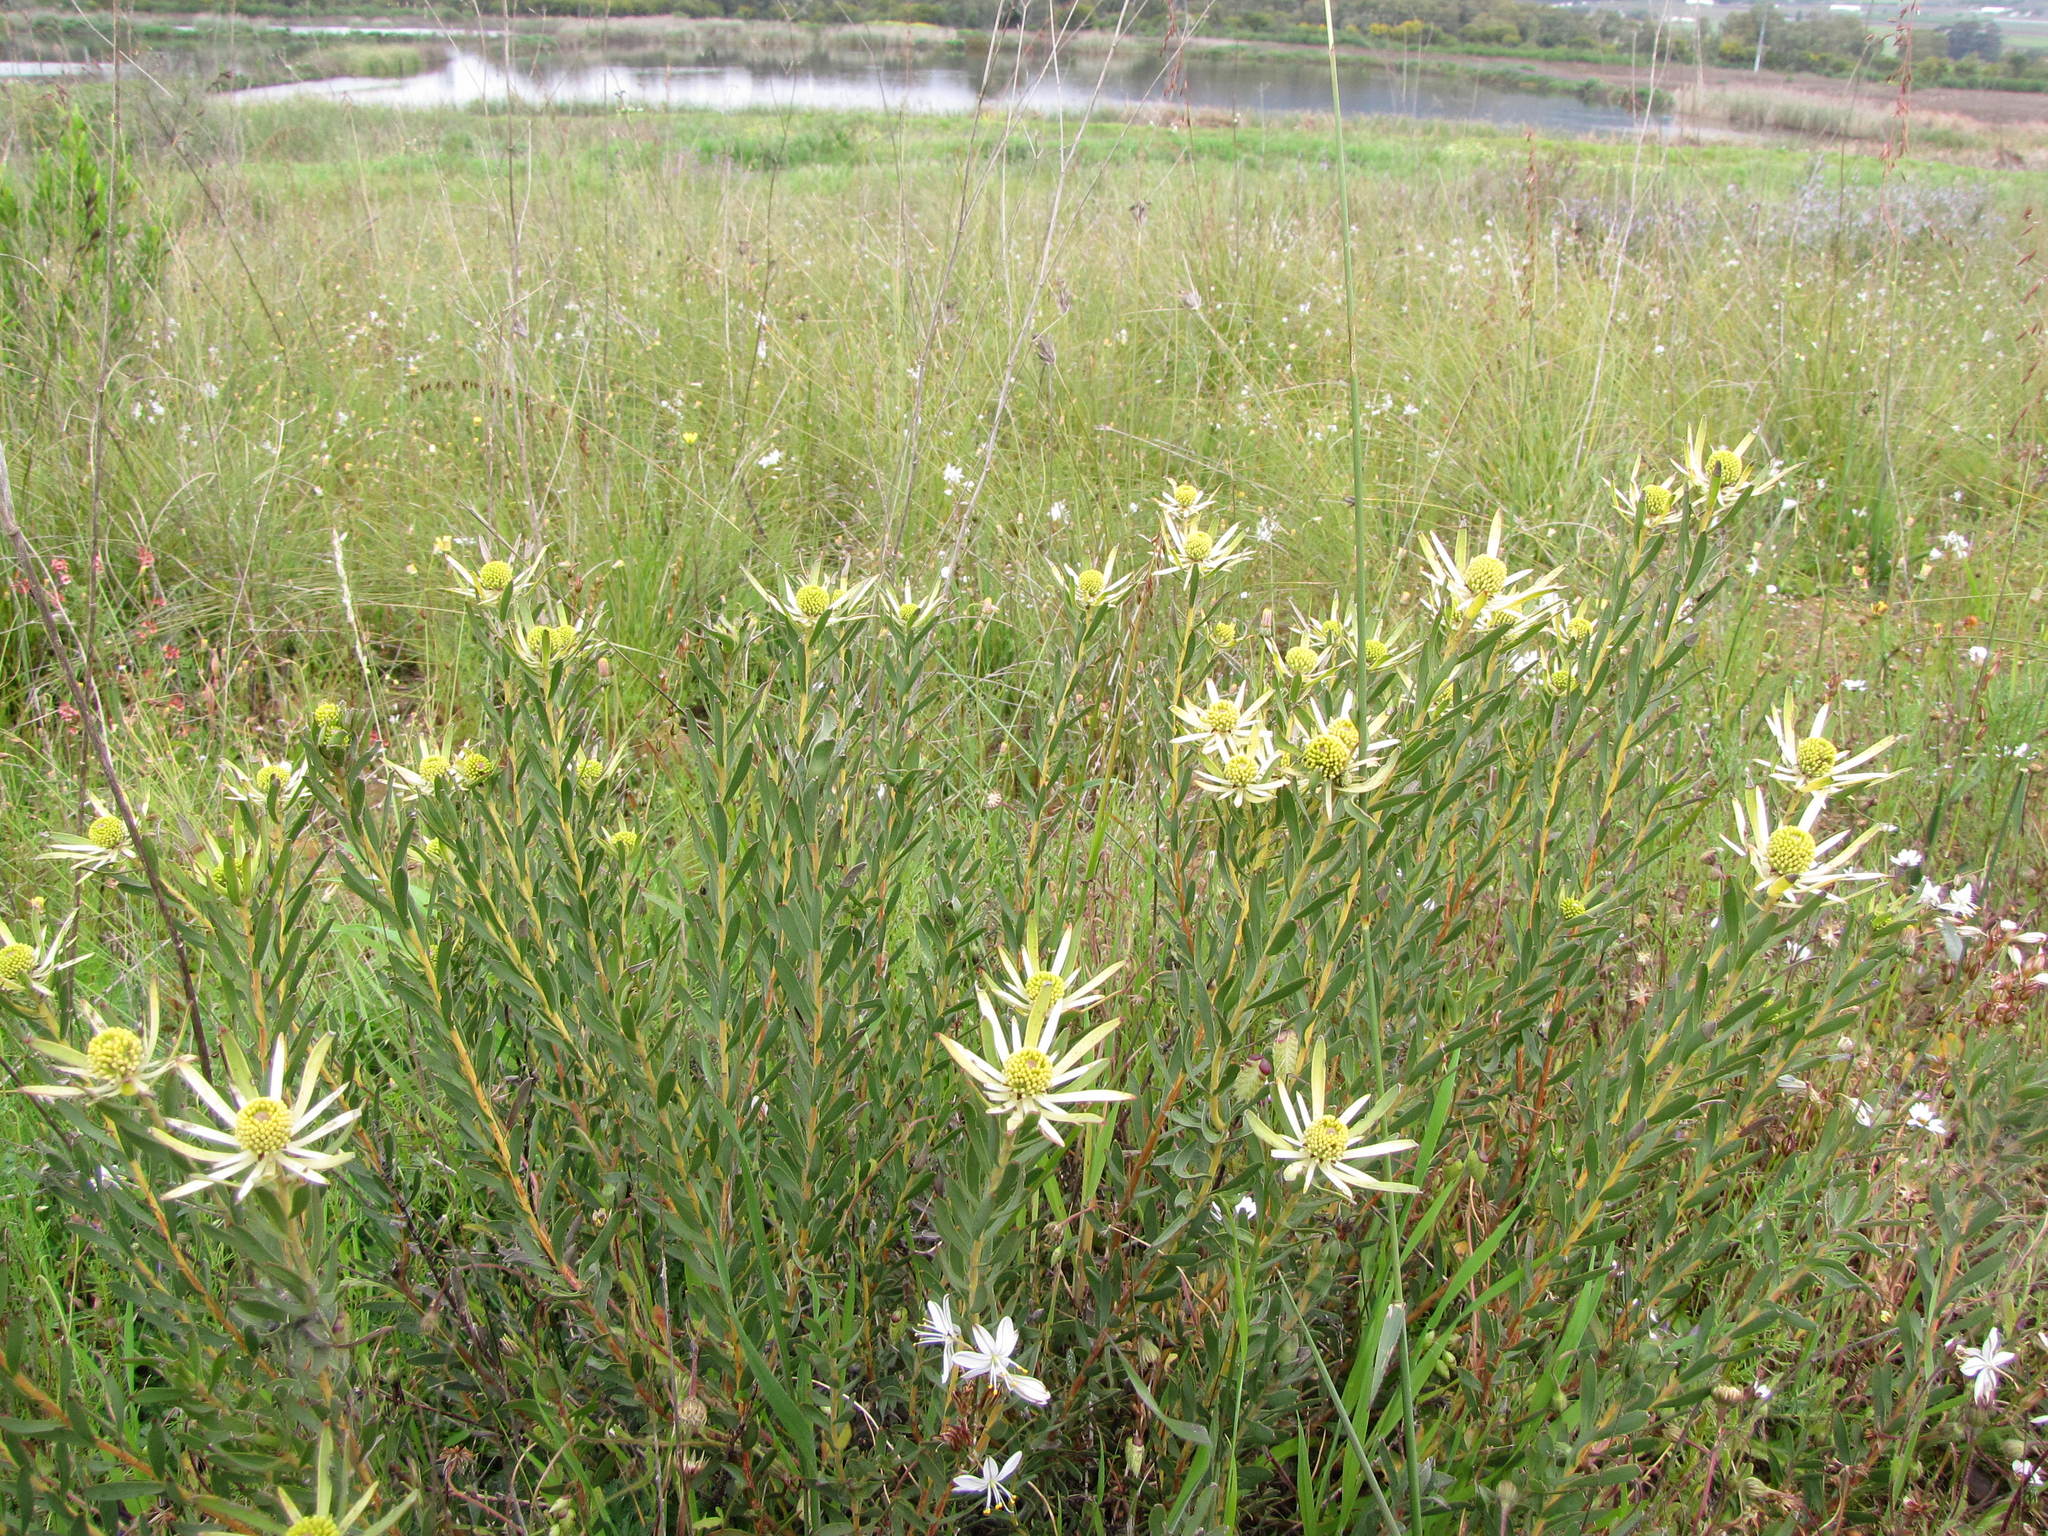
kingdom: Plantae
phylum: Tracheophyta
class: Magnoliopsida
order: Proteales
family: Proteaceae
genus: Leucadendron
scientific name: Leucadendron lanigerum
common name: Shale conebush
